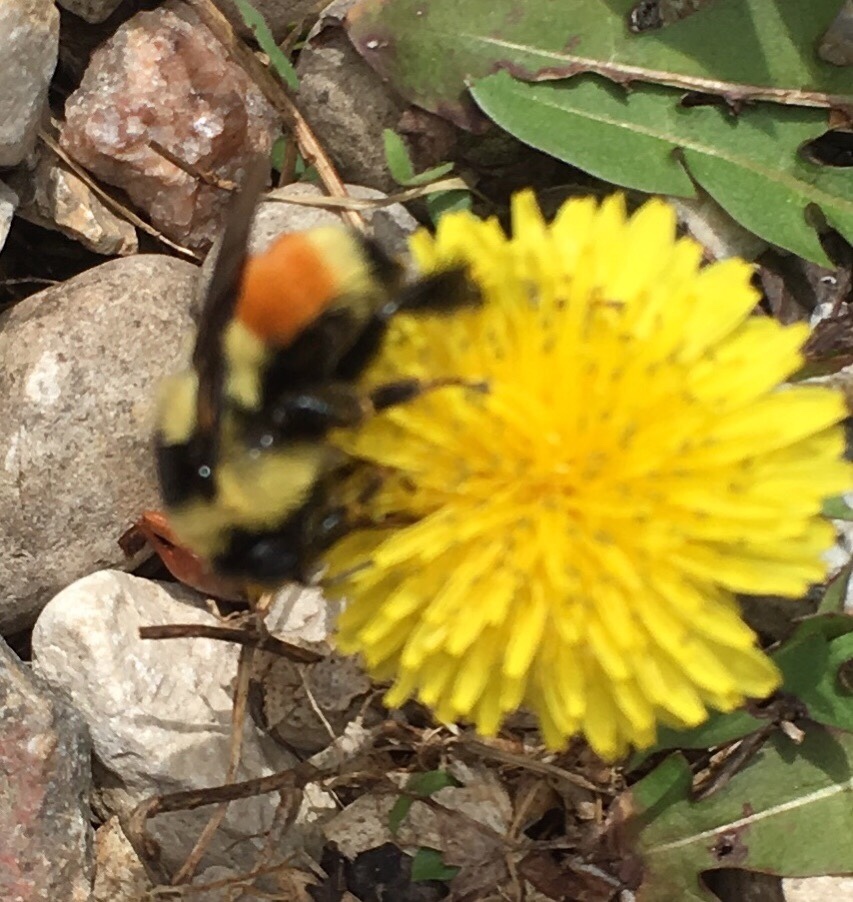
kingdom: Animalia
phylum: Arthropoda
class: Insecta
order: Hymenoptera
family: Apidae
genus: Bombus
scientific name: Bombus ternarius
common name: Tri-colored bumble bee
